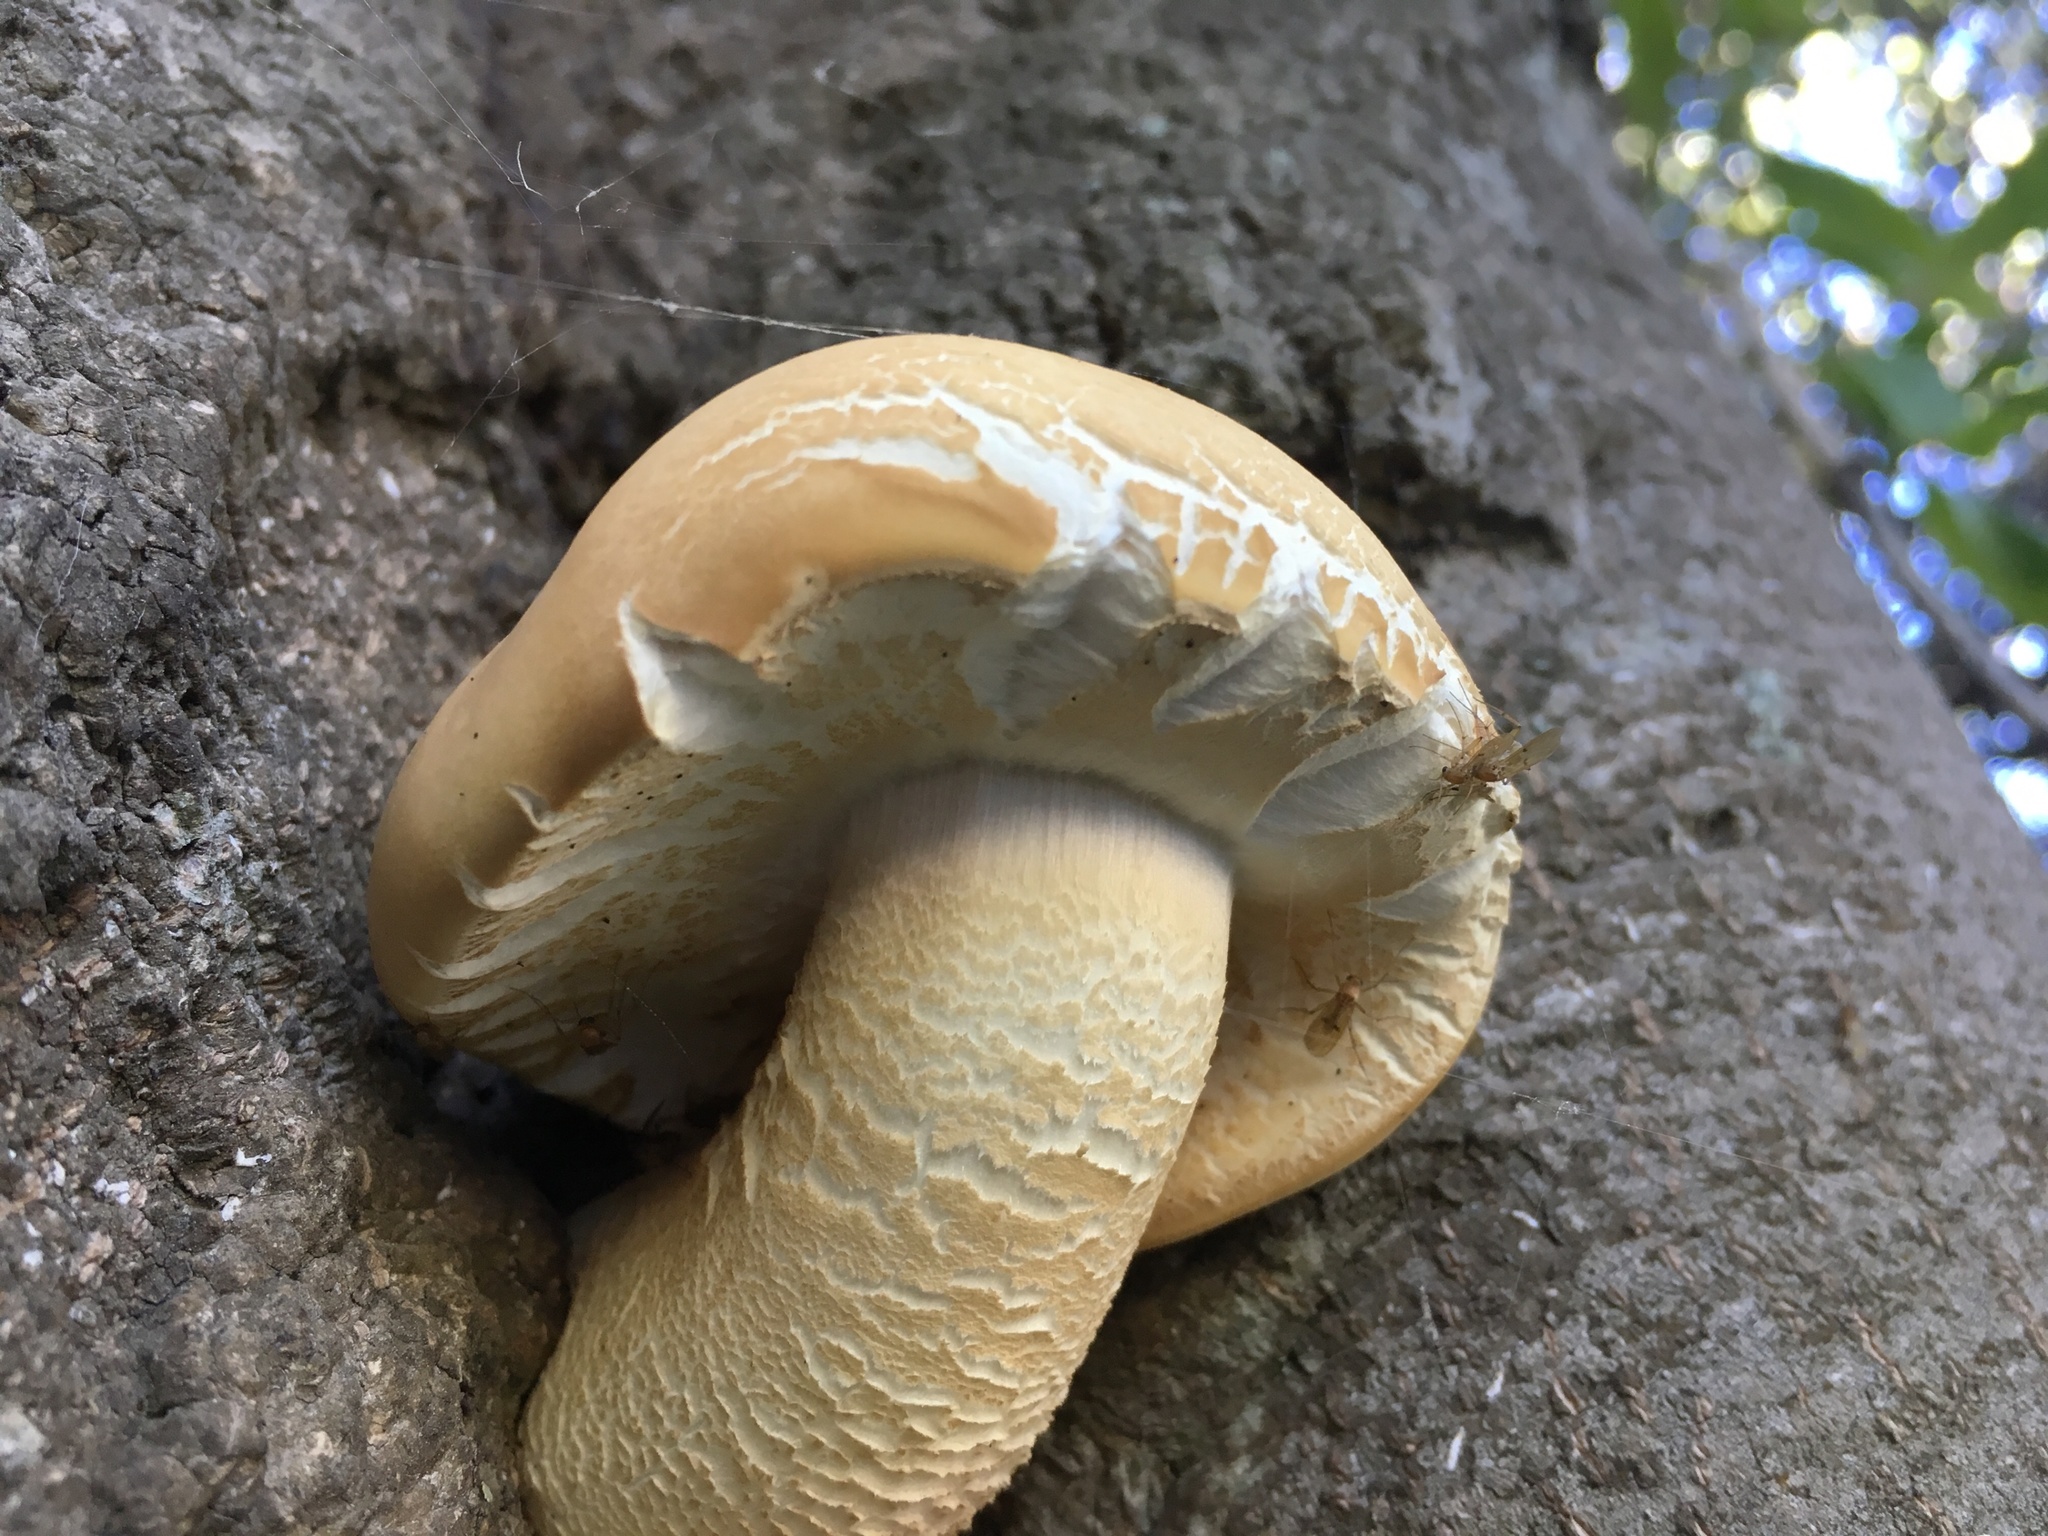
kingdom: Fungi
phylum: Basidiomycota
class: Agaricomycetes
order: Agaricales
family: Tubariaceae
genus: Cyclocybe
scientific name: Cyclocybe parasitica
